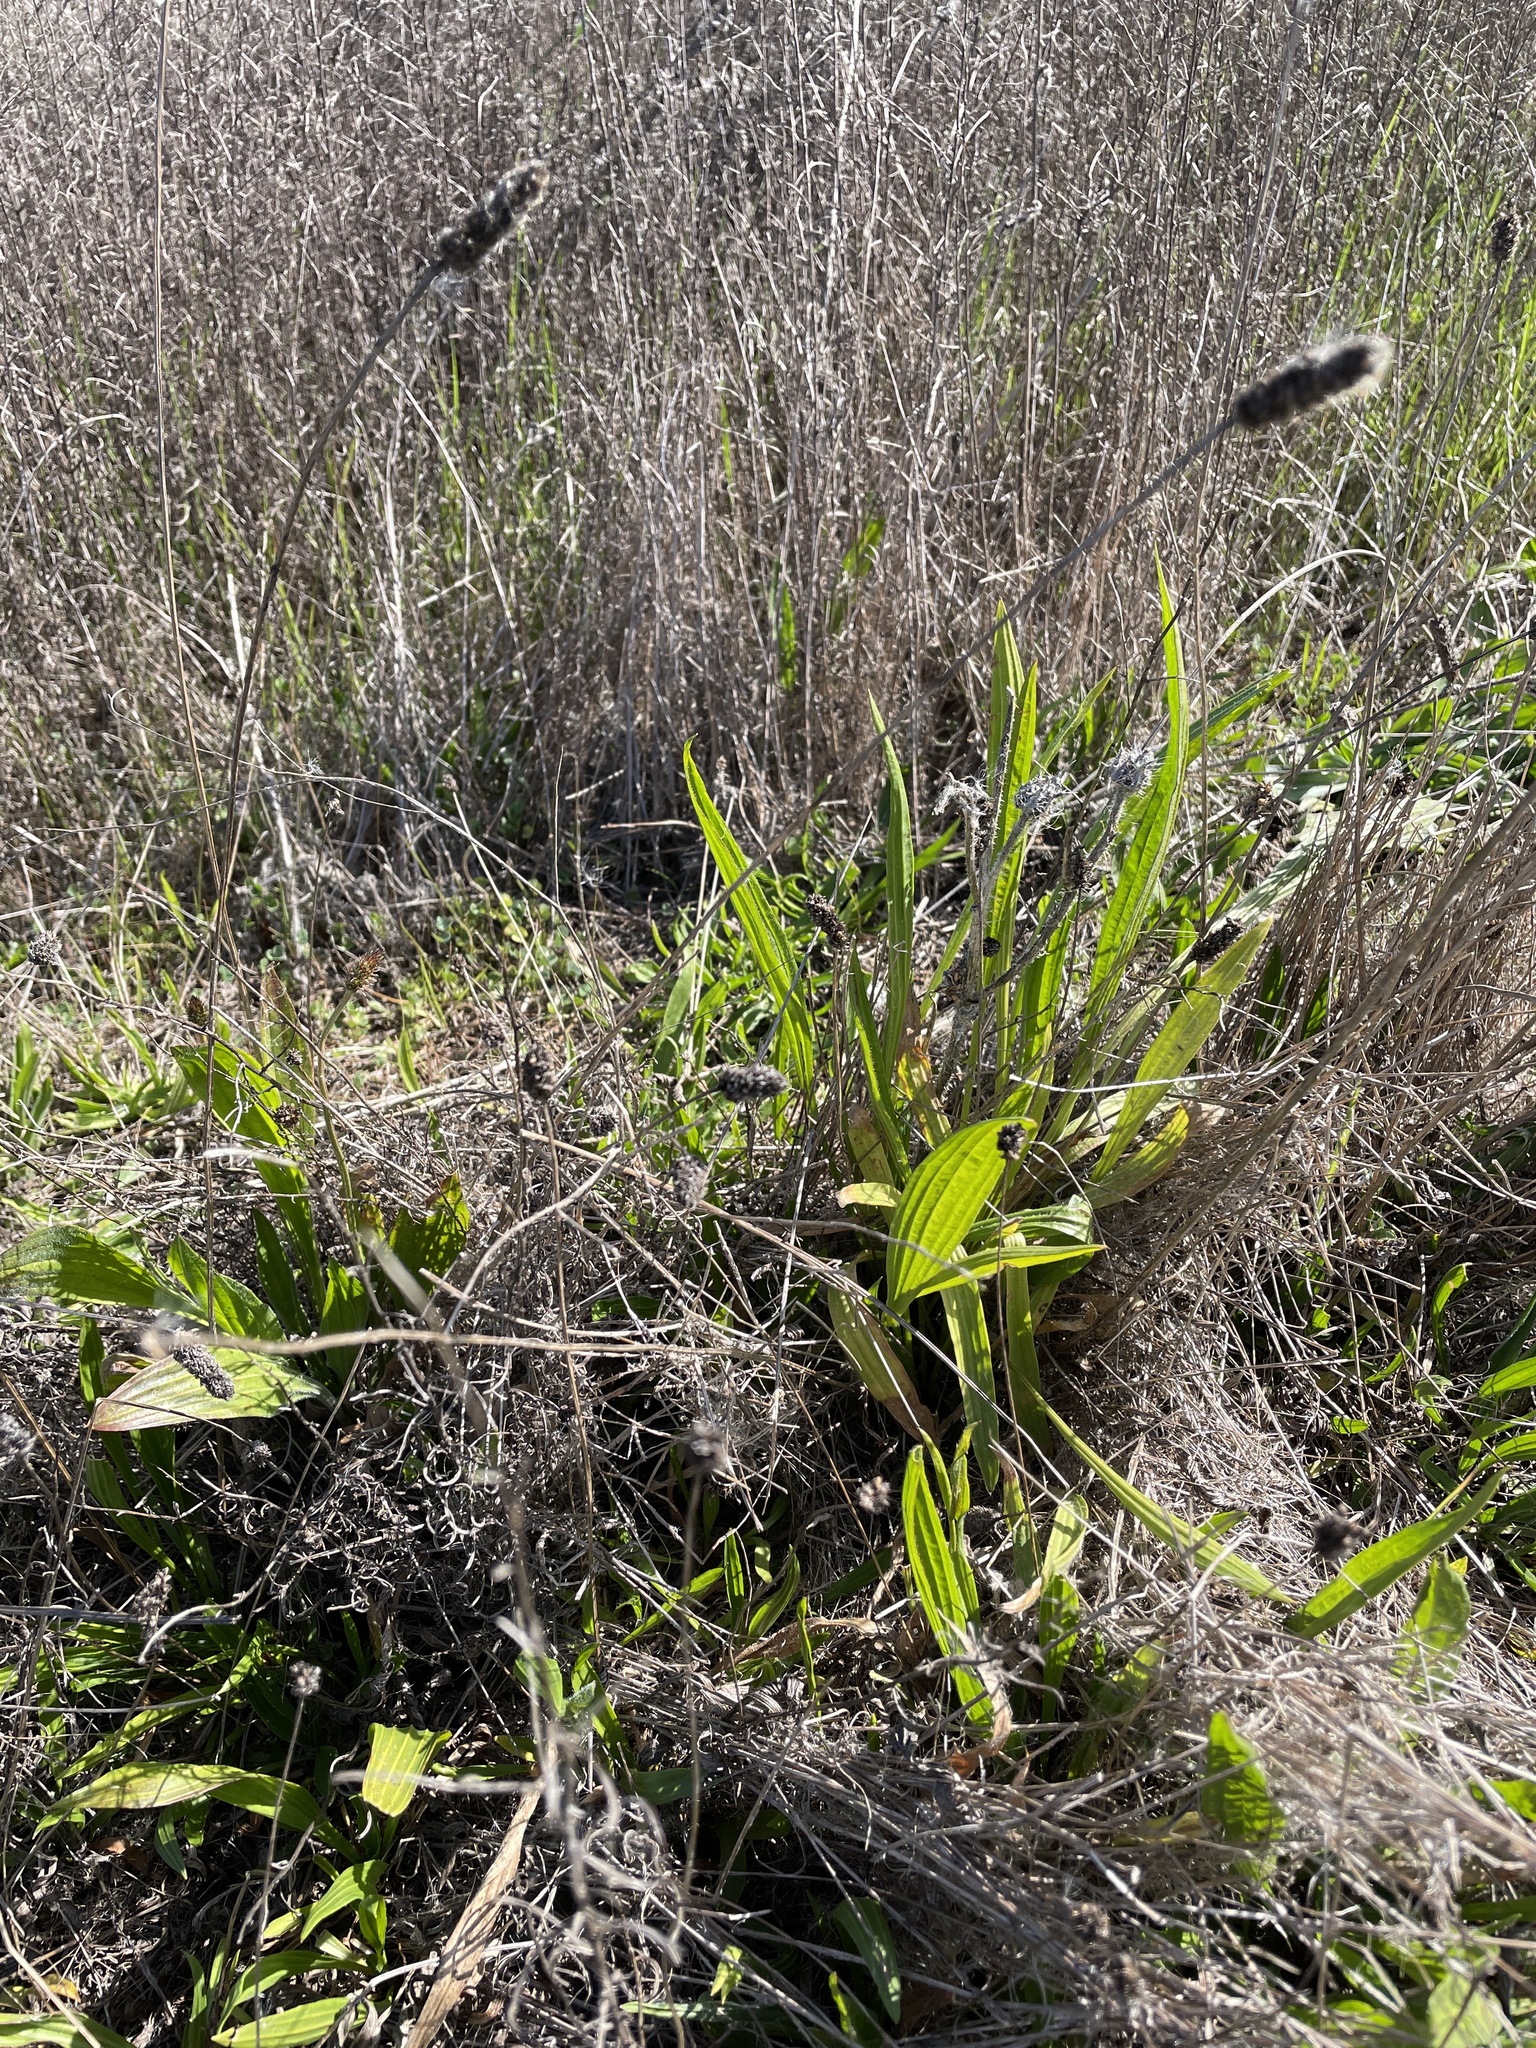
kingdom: Plantae
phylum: Tracheophyta
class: Magnoliopsida
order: Lamiales
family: Plantaginaceae
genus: Plantago
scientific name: Plantago lanceolata
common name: Ribwort plantain
